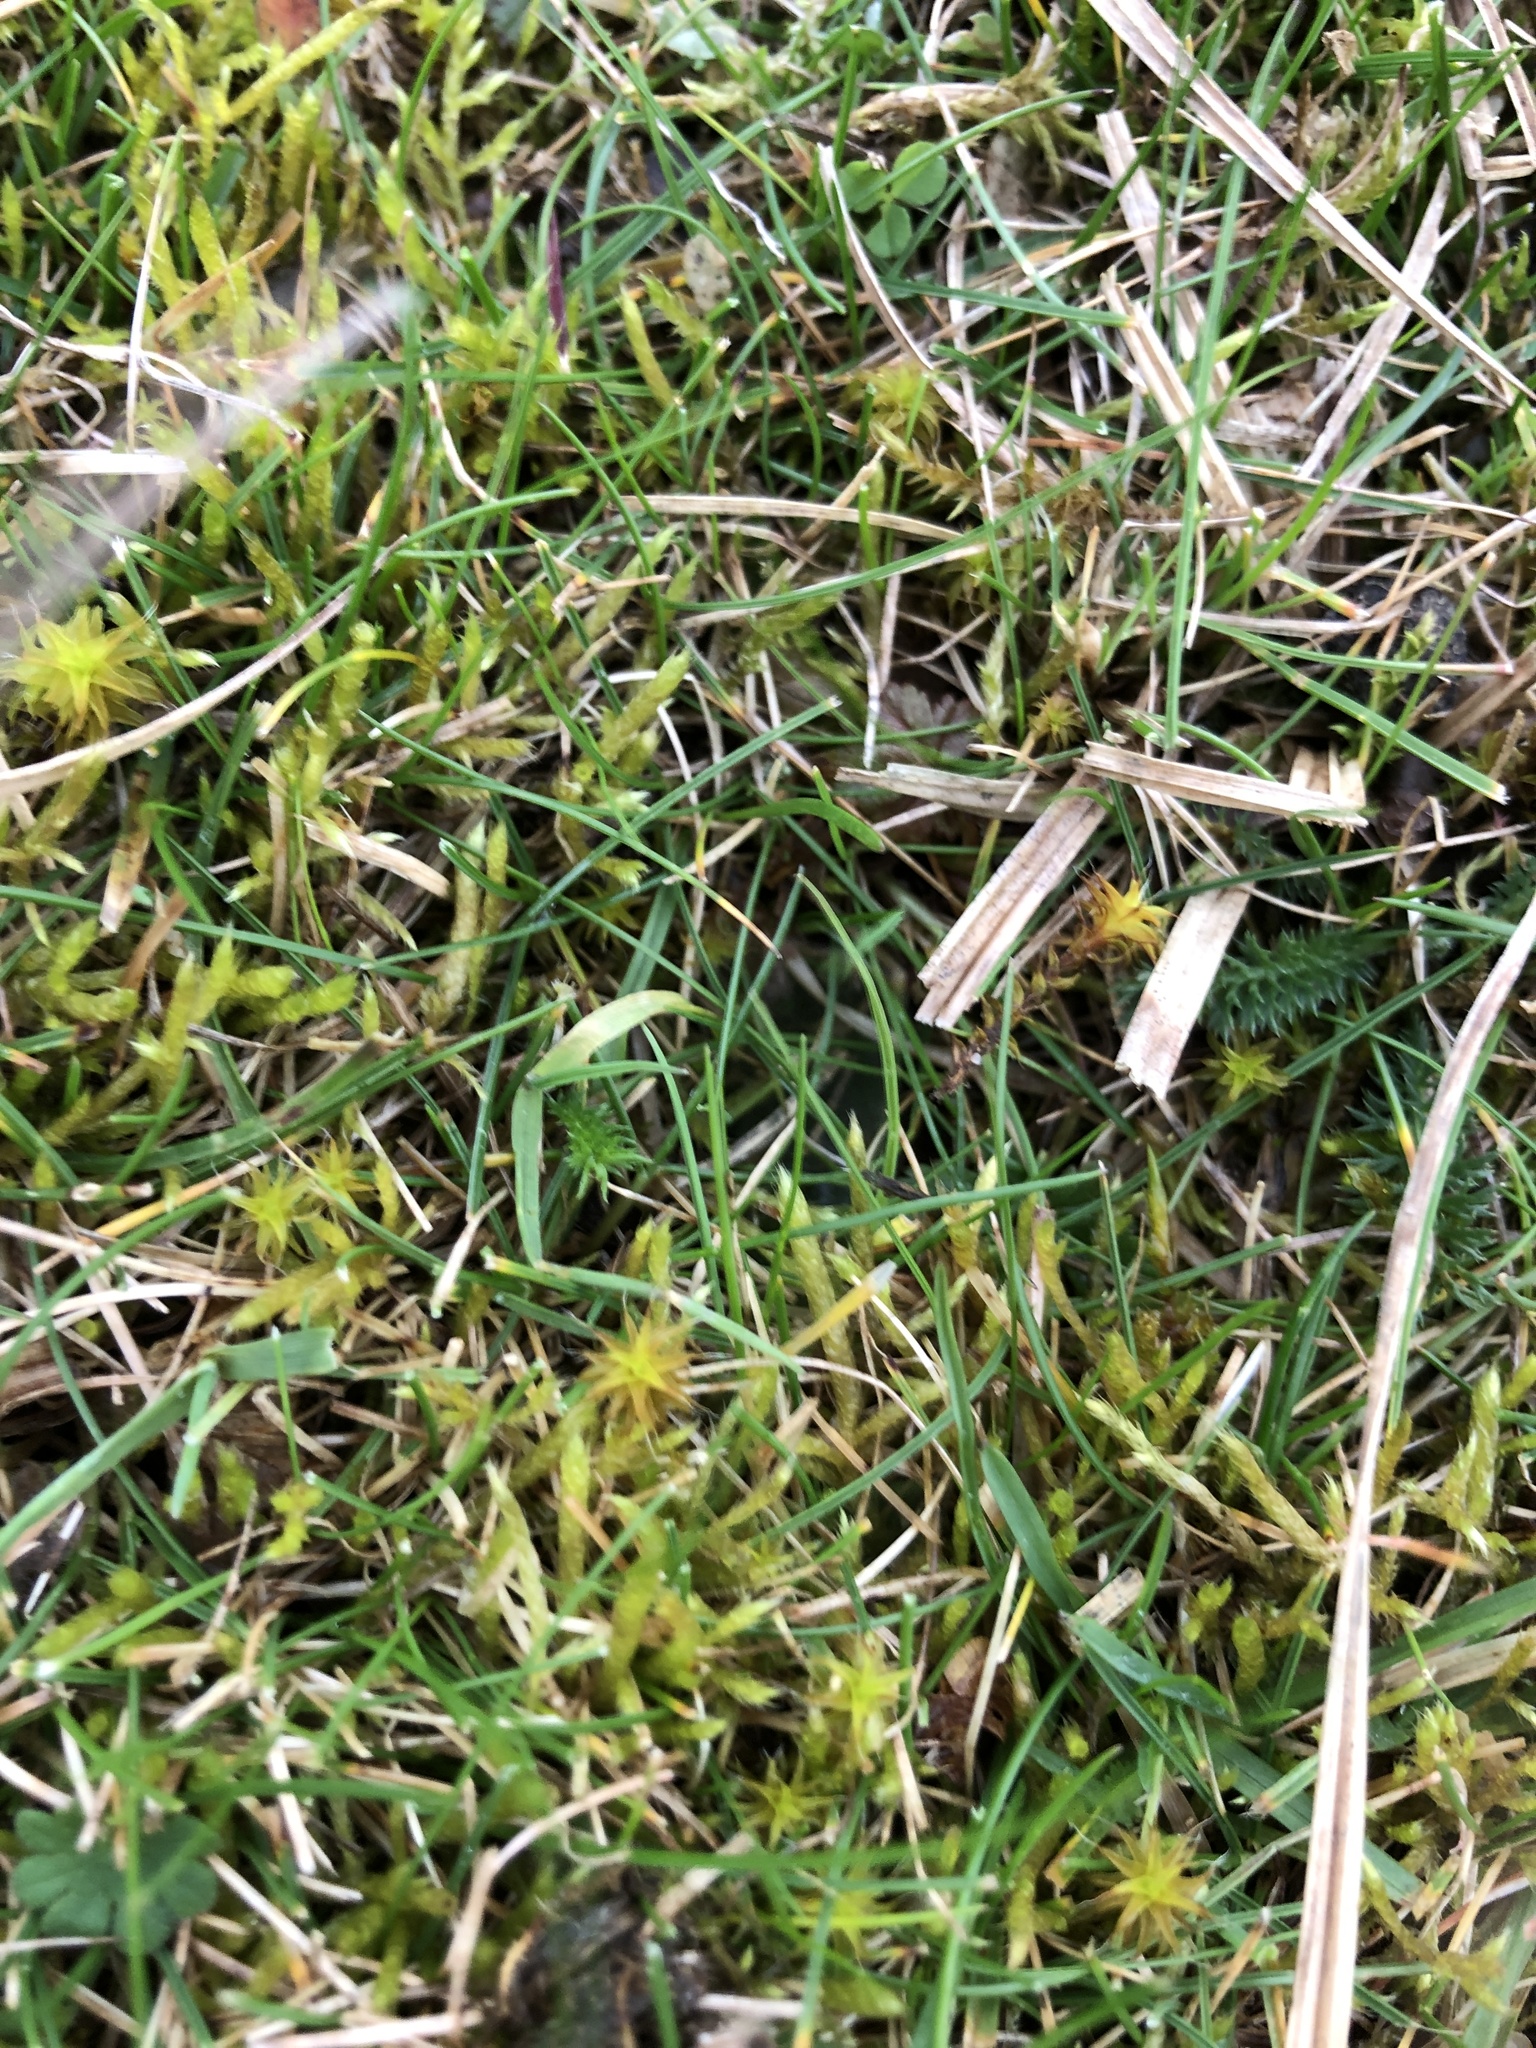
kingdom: Plantae
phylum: Bryophyta
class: Bryopsida
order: Hypnales
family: Brachytheciaceae
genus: Brachythecium
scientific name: Brachythecium albicans
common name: Whitish ragged moss
